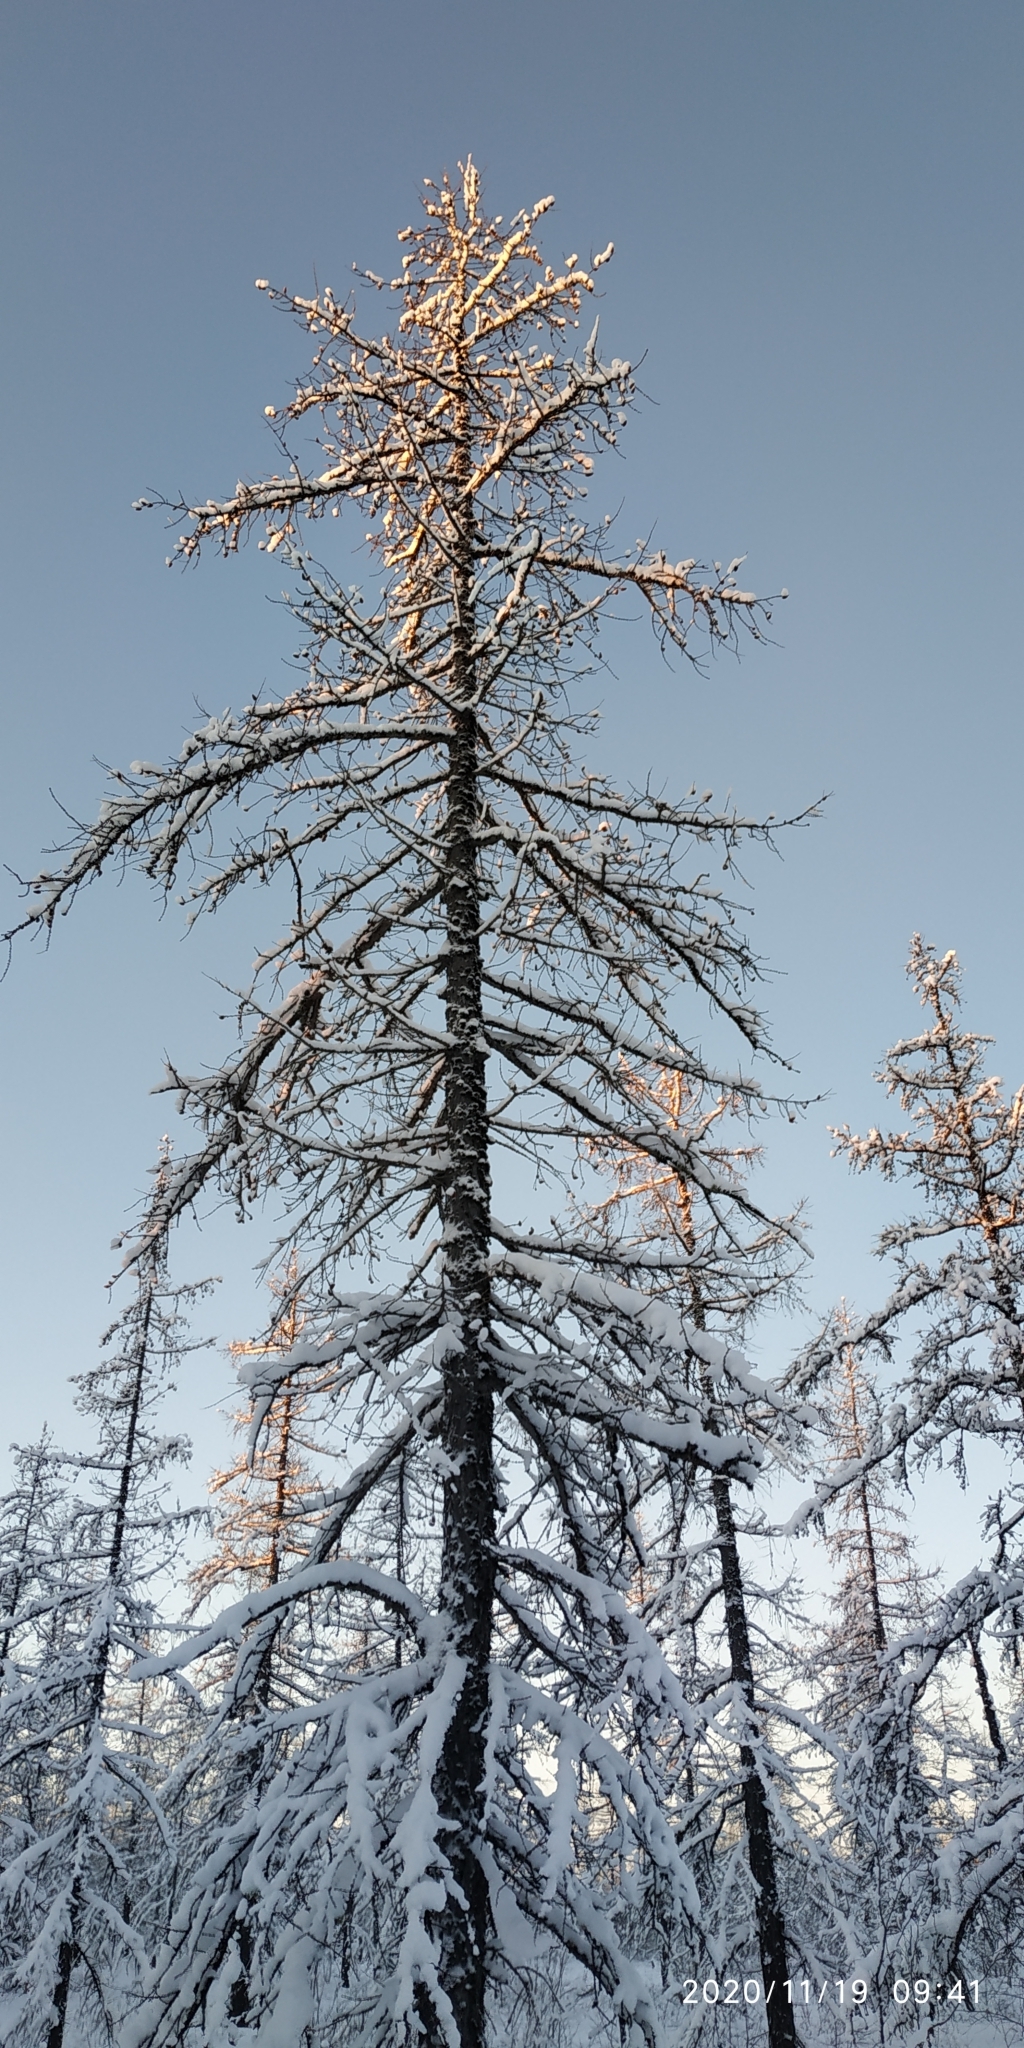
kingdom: Plantae
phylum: Tracheophyta
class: Pinopsida
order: Pinales
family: Pinaceae
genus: Larix
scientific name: Larix sibirica
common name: Siberian larch
